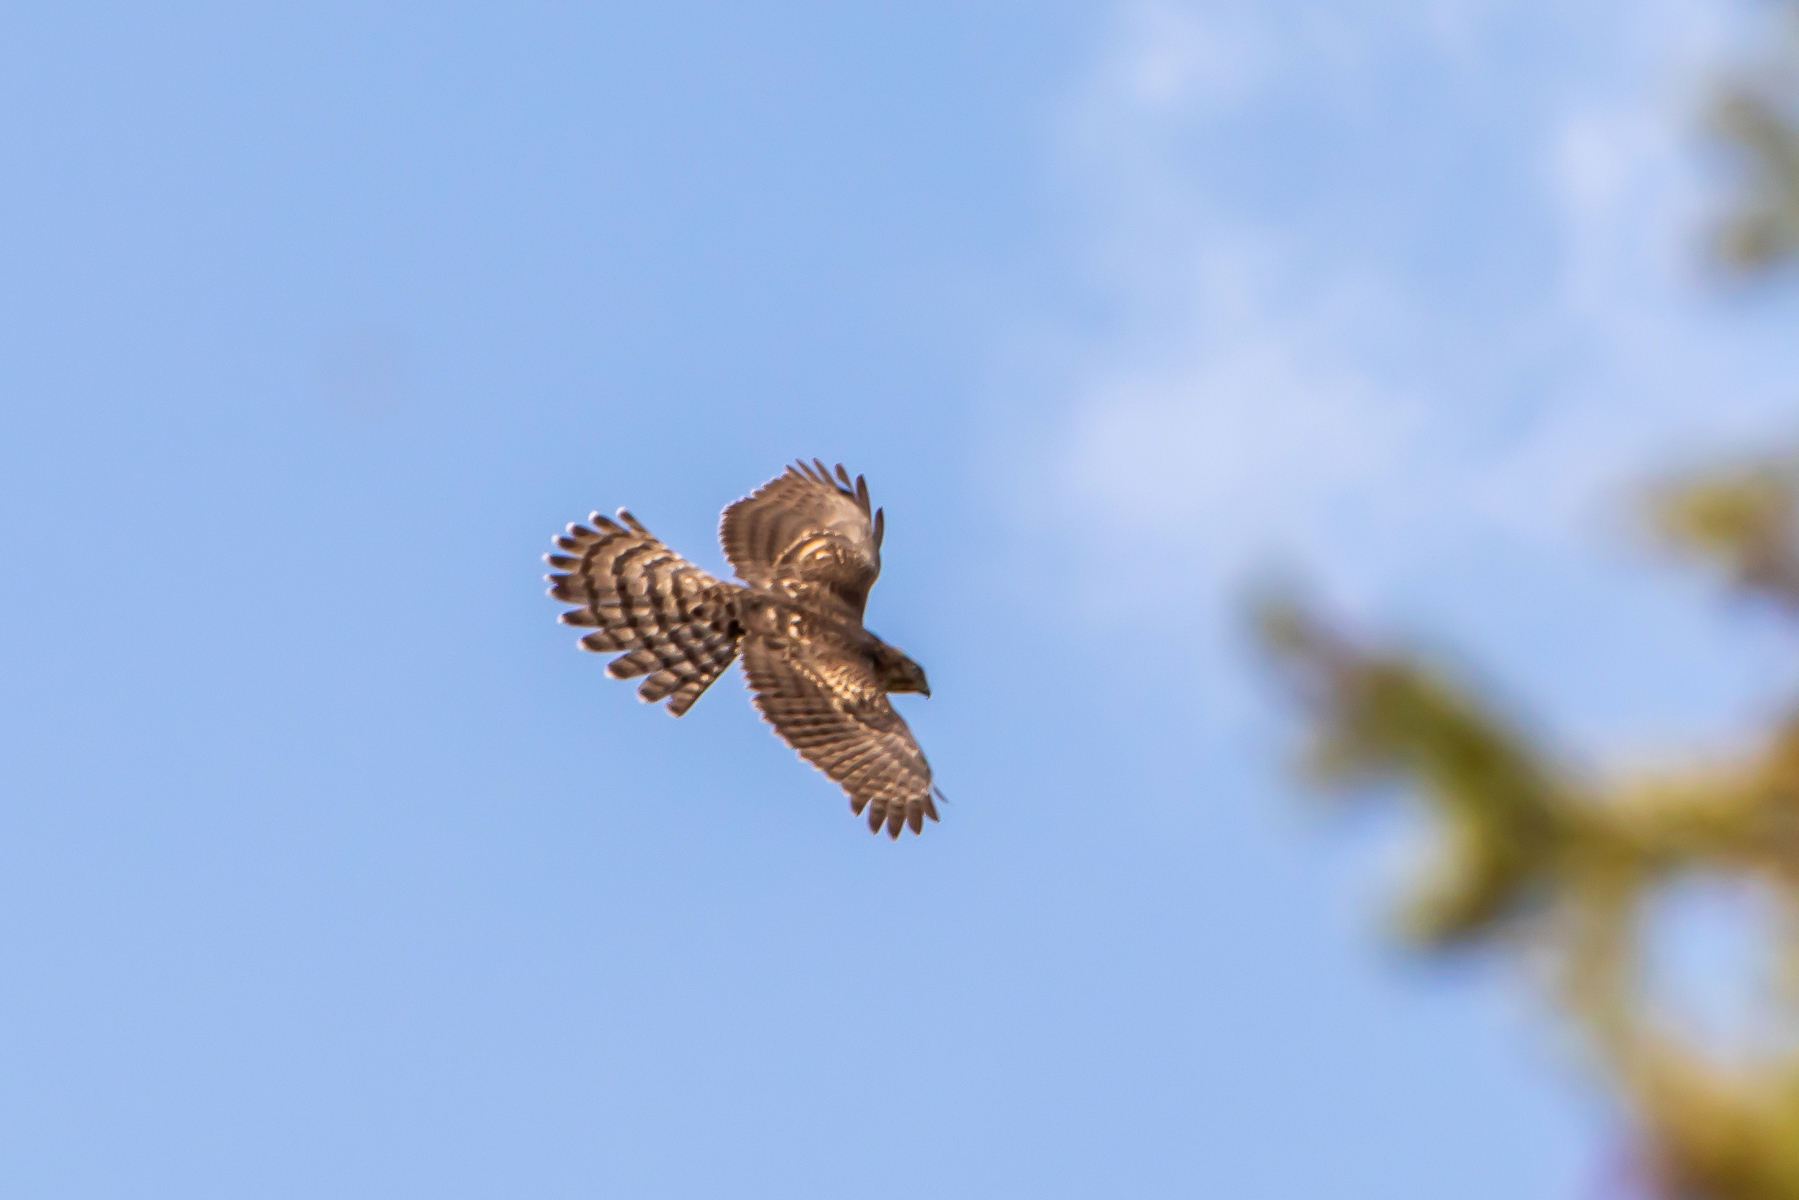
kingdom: Animalia
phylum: Chordata
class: Aves
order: Accipitriformes
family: Accipitridae
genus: Accipiter
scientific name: Accipiter gentilis
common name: Northern goshawk
